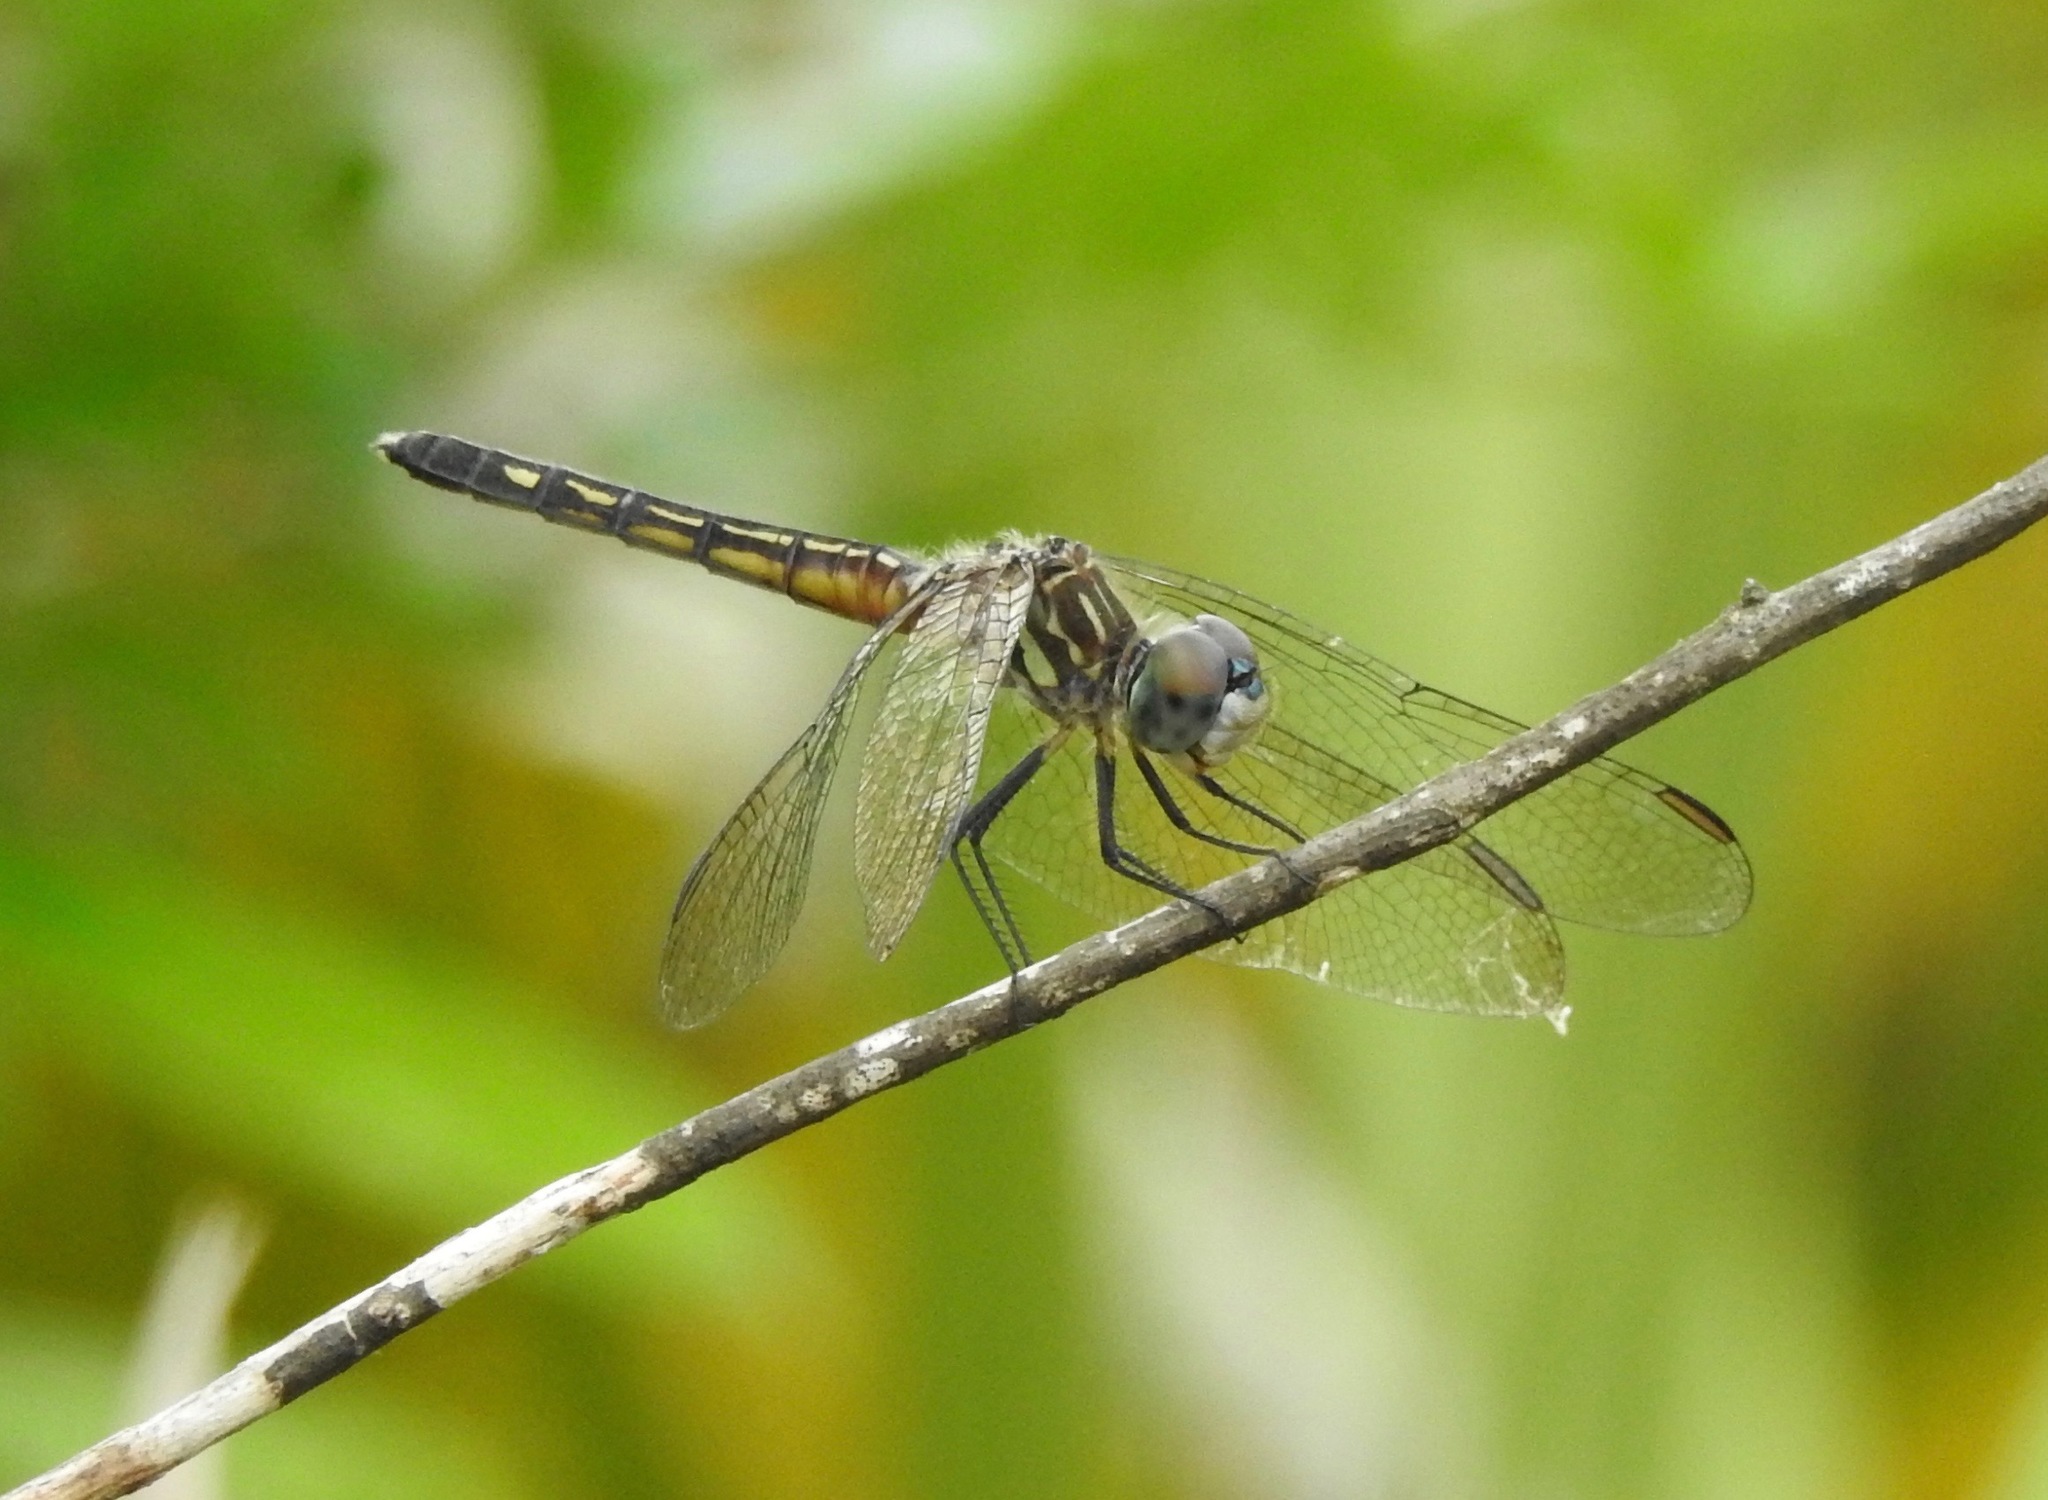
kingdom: Animalia
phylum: Arthropoda
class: Insecta
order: Odonata
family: Libellulidae
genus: Pachydiplax
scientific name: Pachydiplax longipennis
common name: Blue dasher
